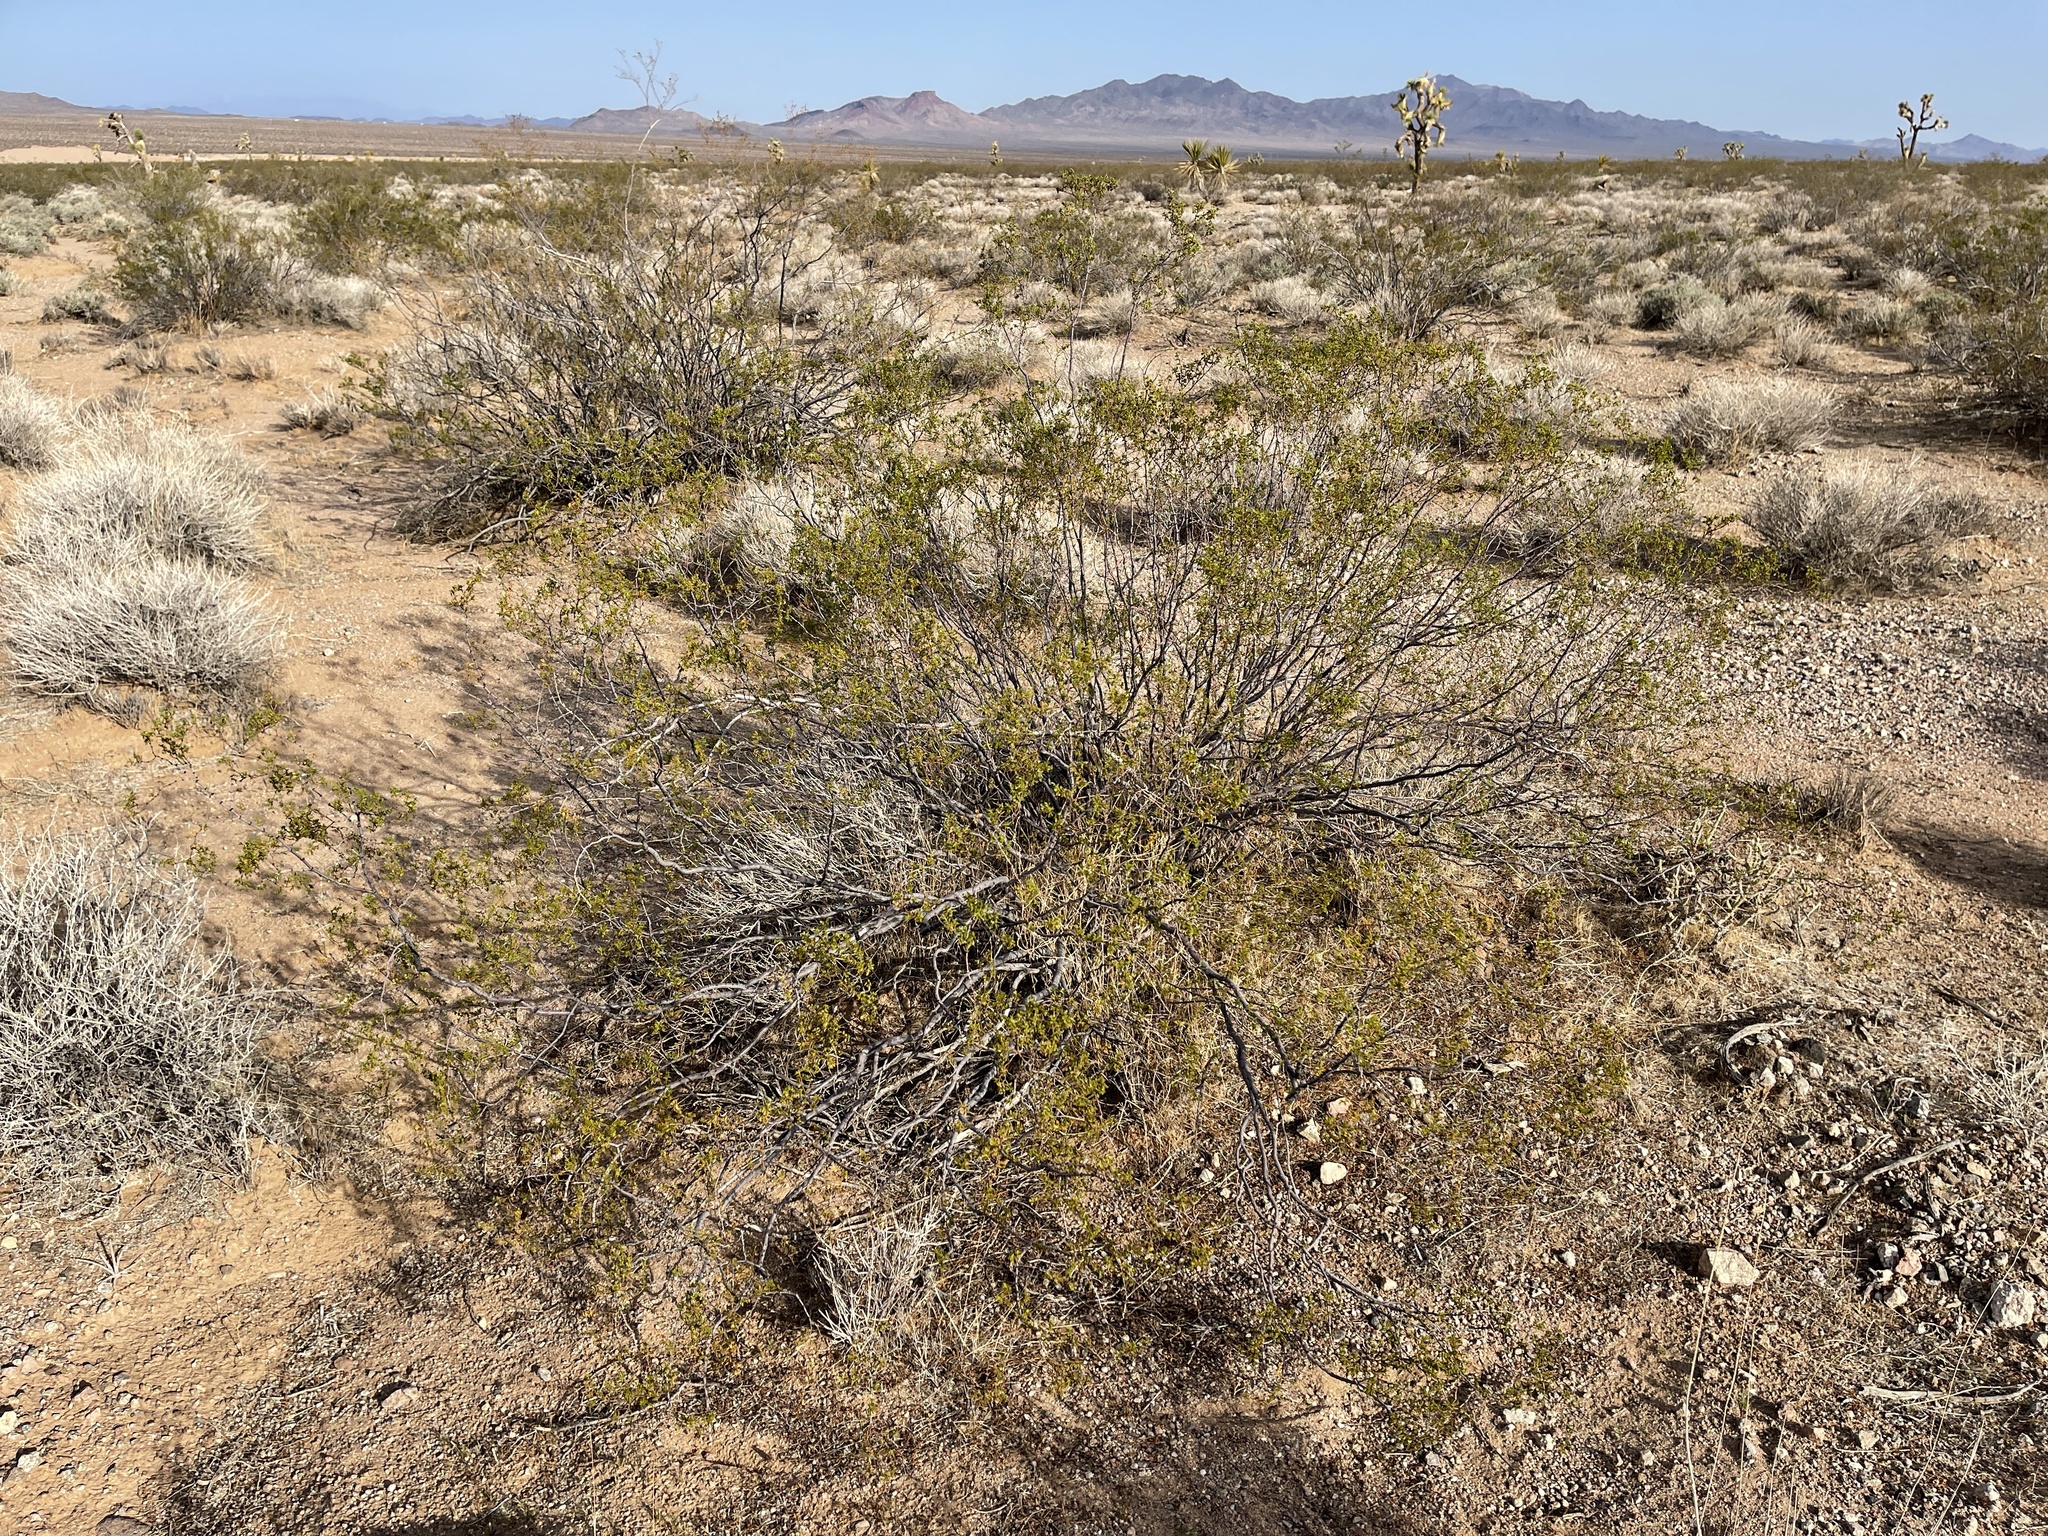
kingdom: Plantae
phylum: Tracheophyta
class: Magnoliopsida
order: Zygophyllales
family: Zygophyllaceae
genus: Larrea
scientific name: Larrea tridentata
